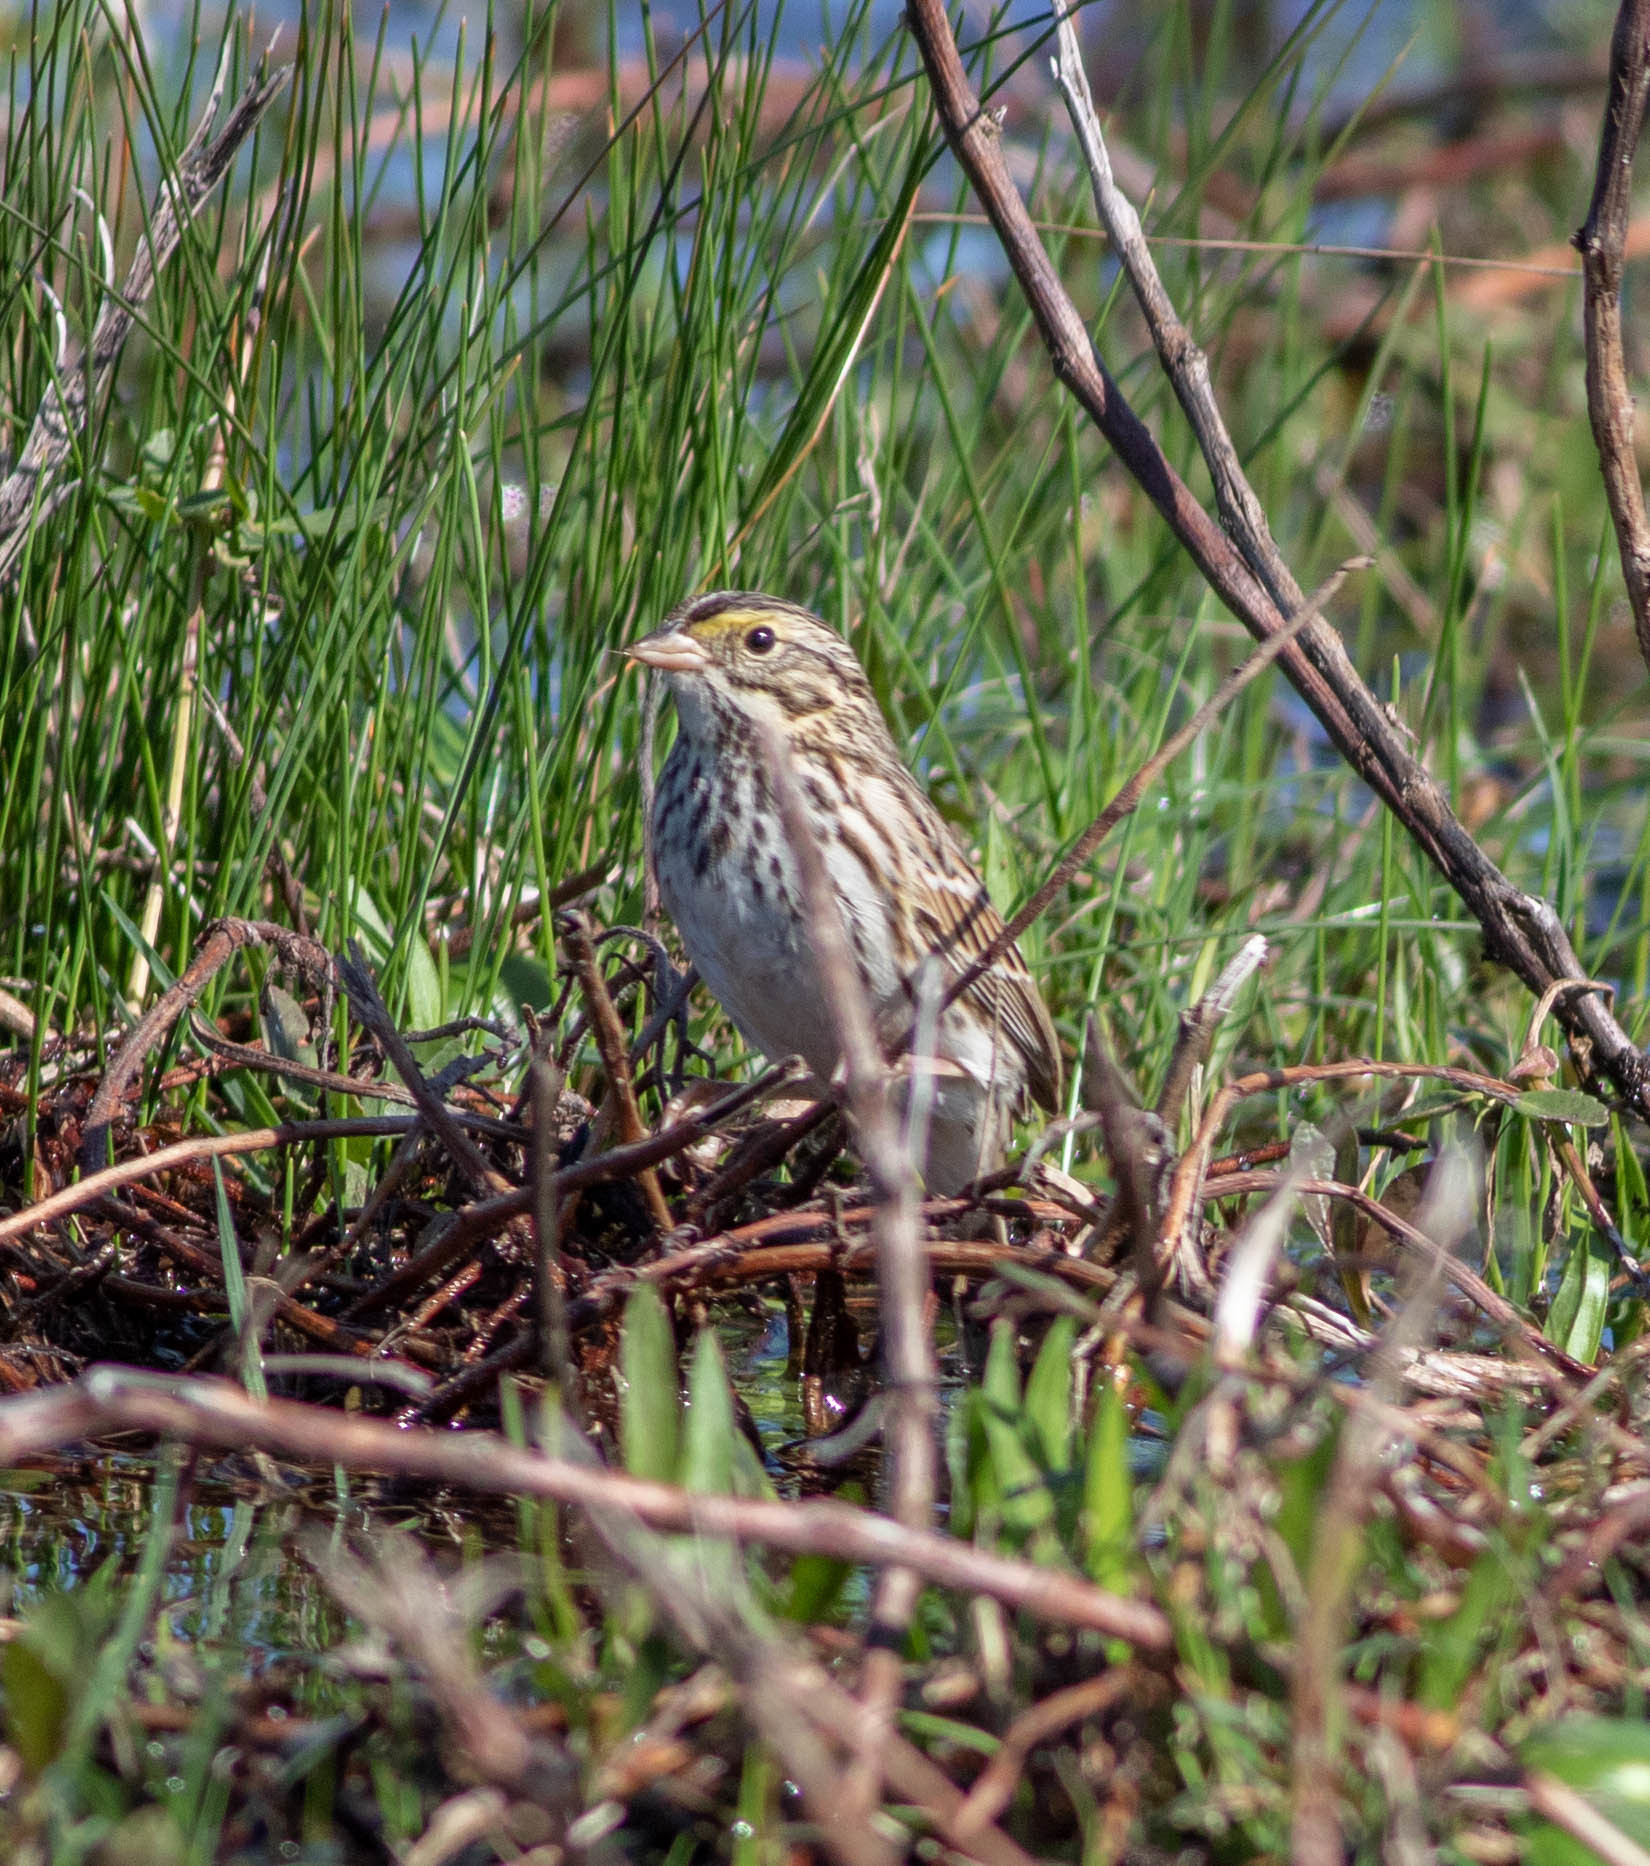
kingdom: Animalia
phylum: Chordata
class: Aves
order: Passeriformes
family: Passerellidae
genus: Passerculus
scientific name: Passerculus sandwichensis
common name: Savannah sparrow
